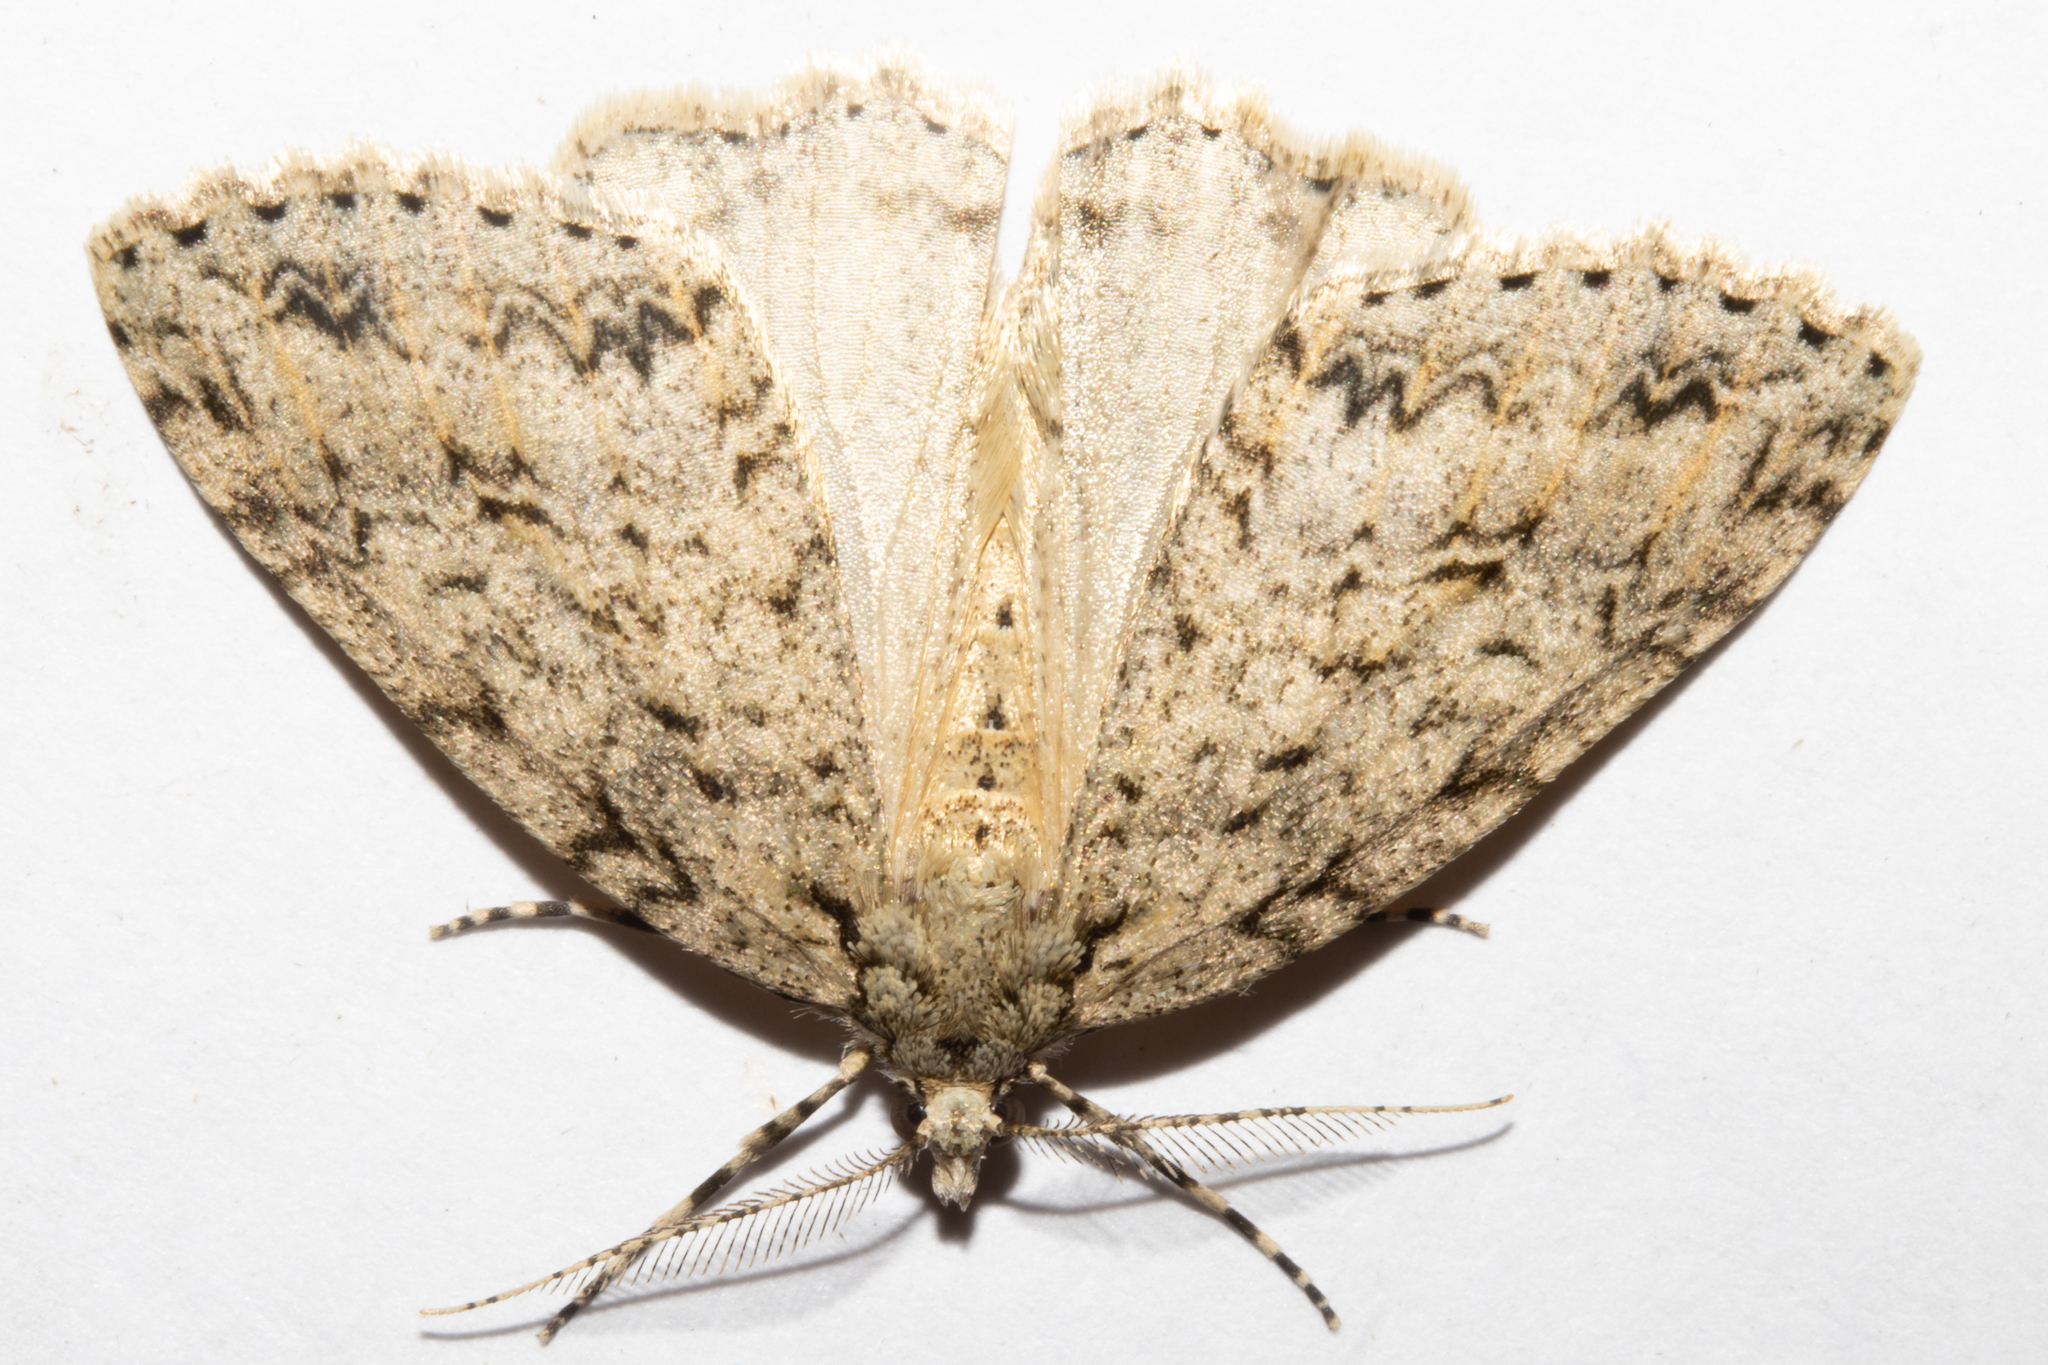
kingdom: Animalia
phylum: Arthropoda
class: Insecta
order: Lepidoptera
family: Geometridae
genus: Pseudocoremia
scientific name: Pseudocoremia rudisata
